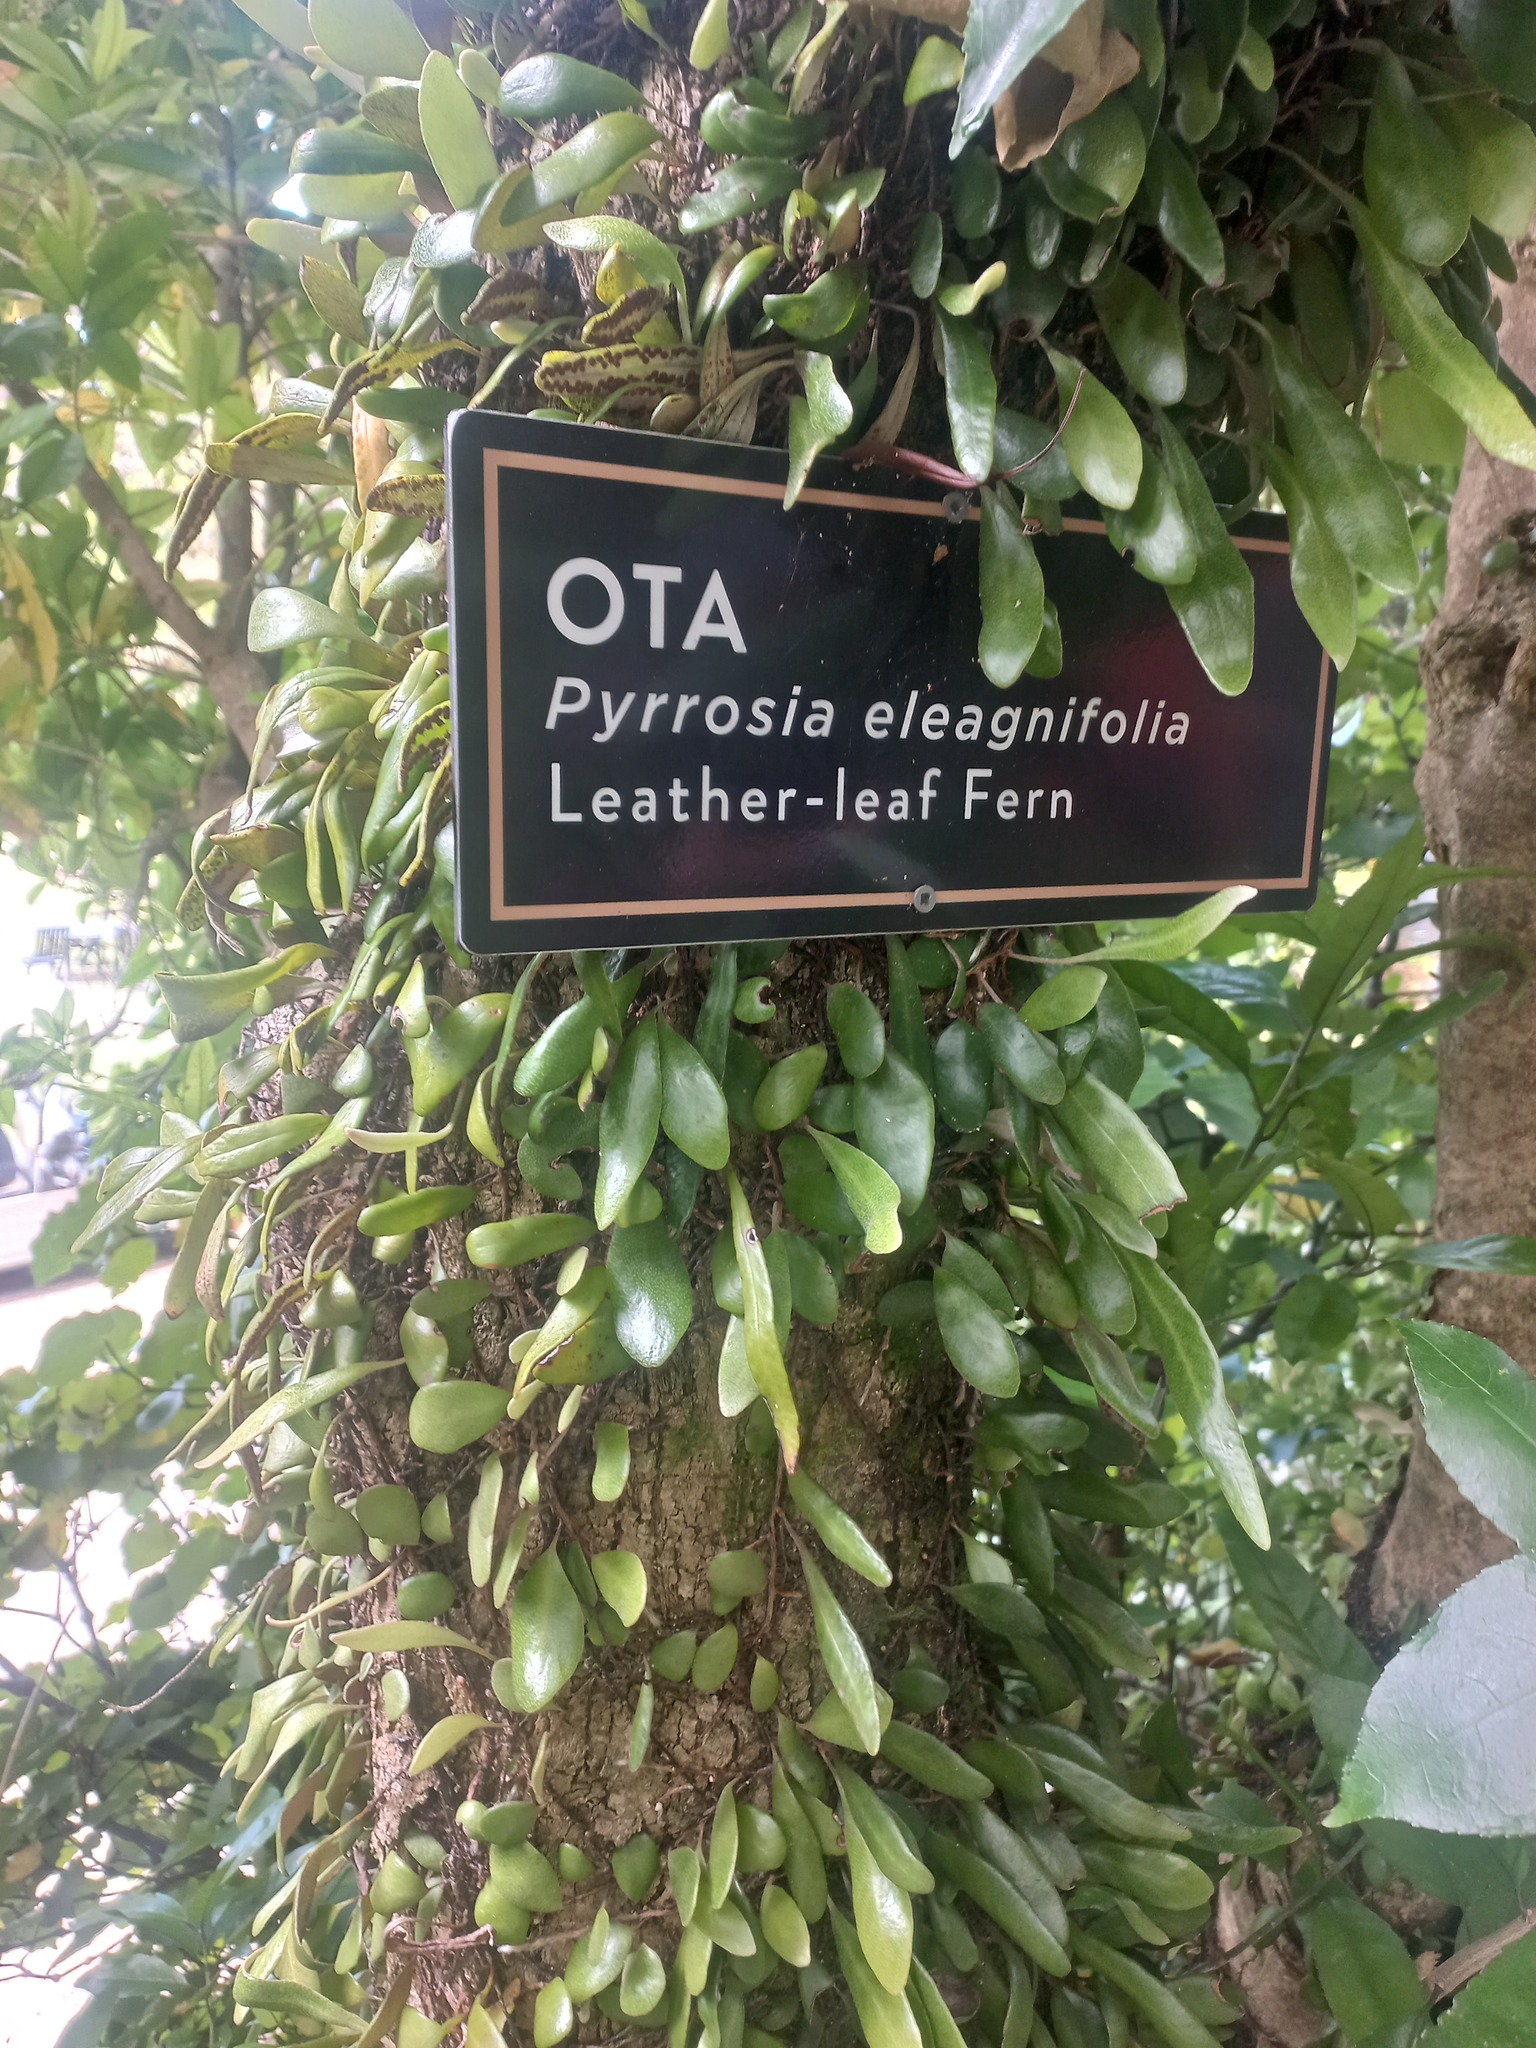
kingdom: Plantae
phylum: Tracheophyta
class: Polypodiopsida
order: Polypodiales
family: Polypodiaceae
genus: Pyrrosia
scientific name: Pyrrosia eleagnifolia
